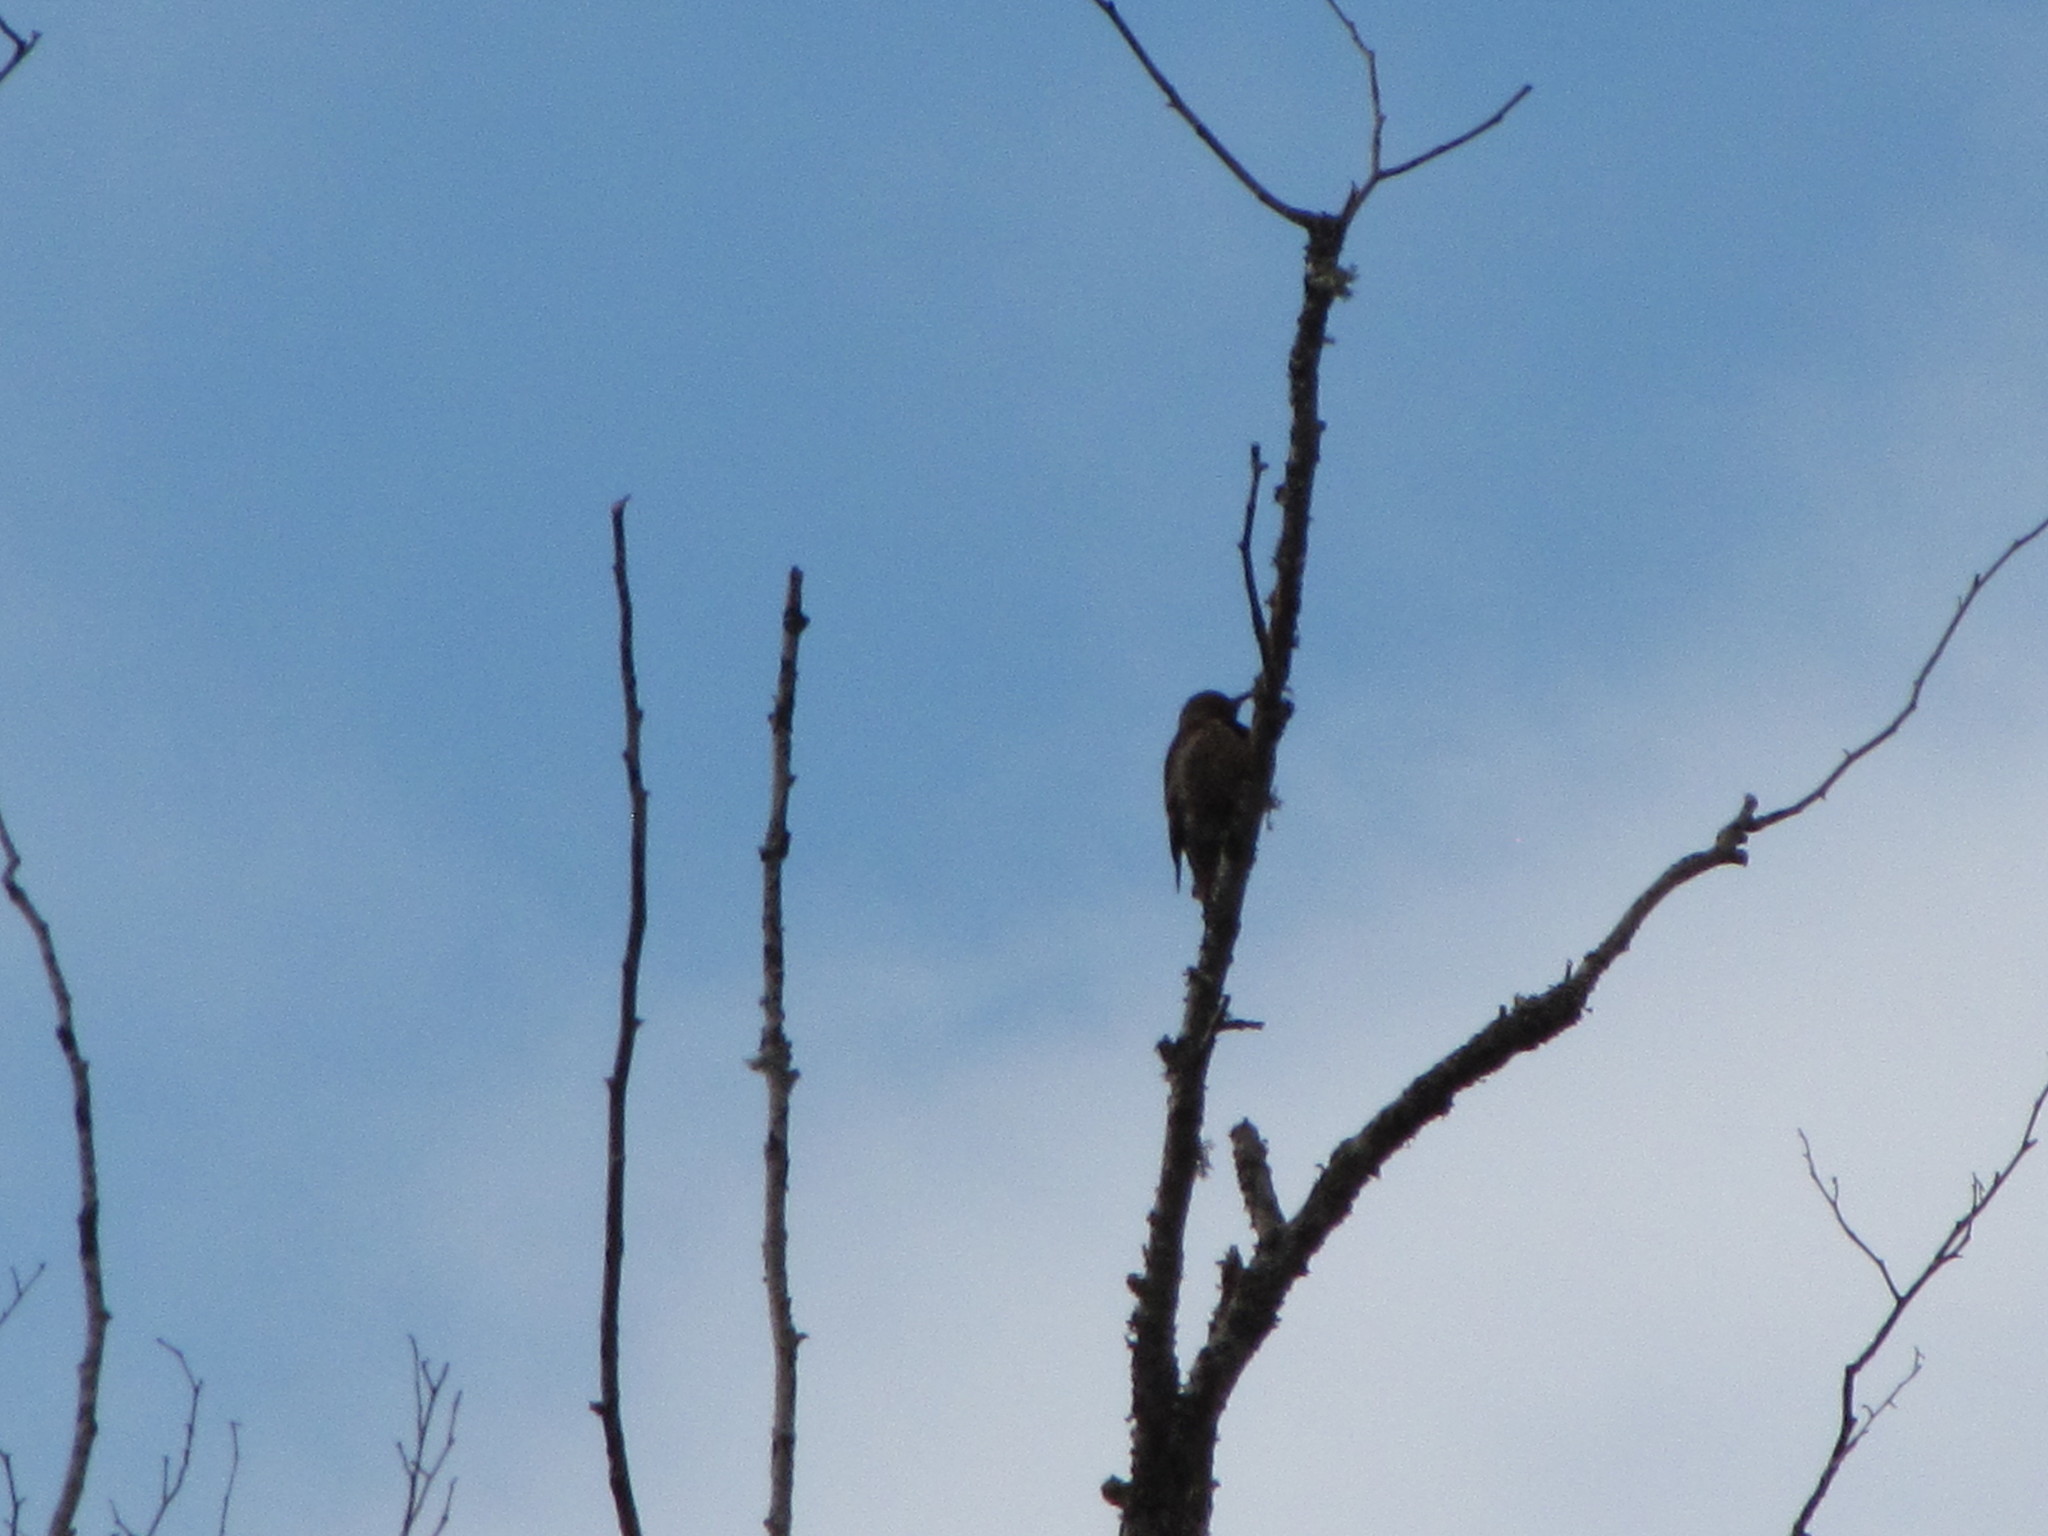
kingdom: Animalia
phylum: Chordata
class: Aves
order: Piciformes
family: Picidae
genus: Colaptes
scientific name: Colaptes auratus
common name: Northern flicker
